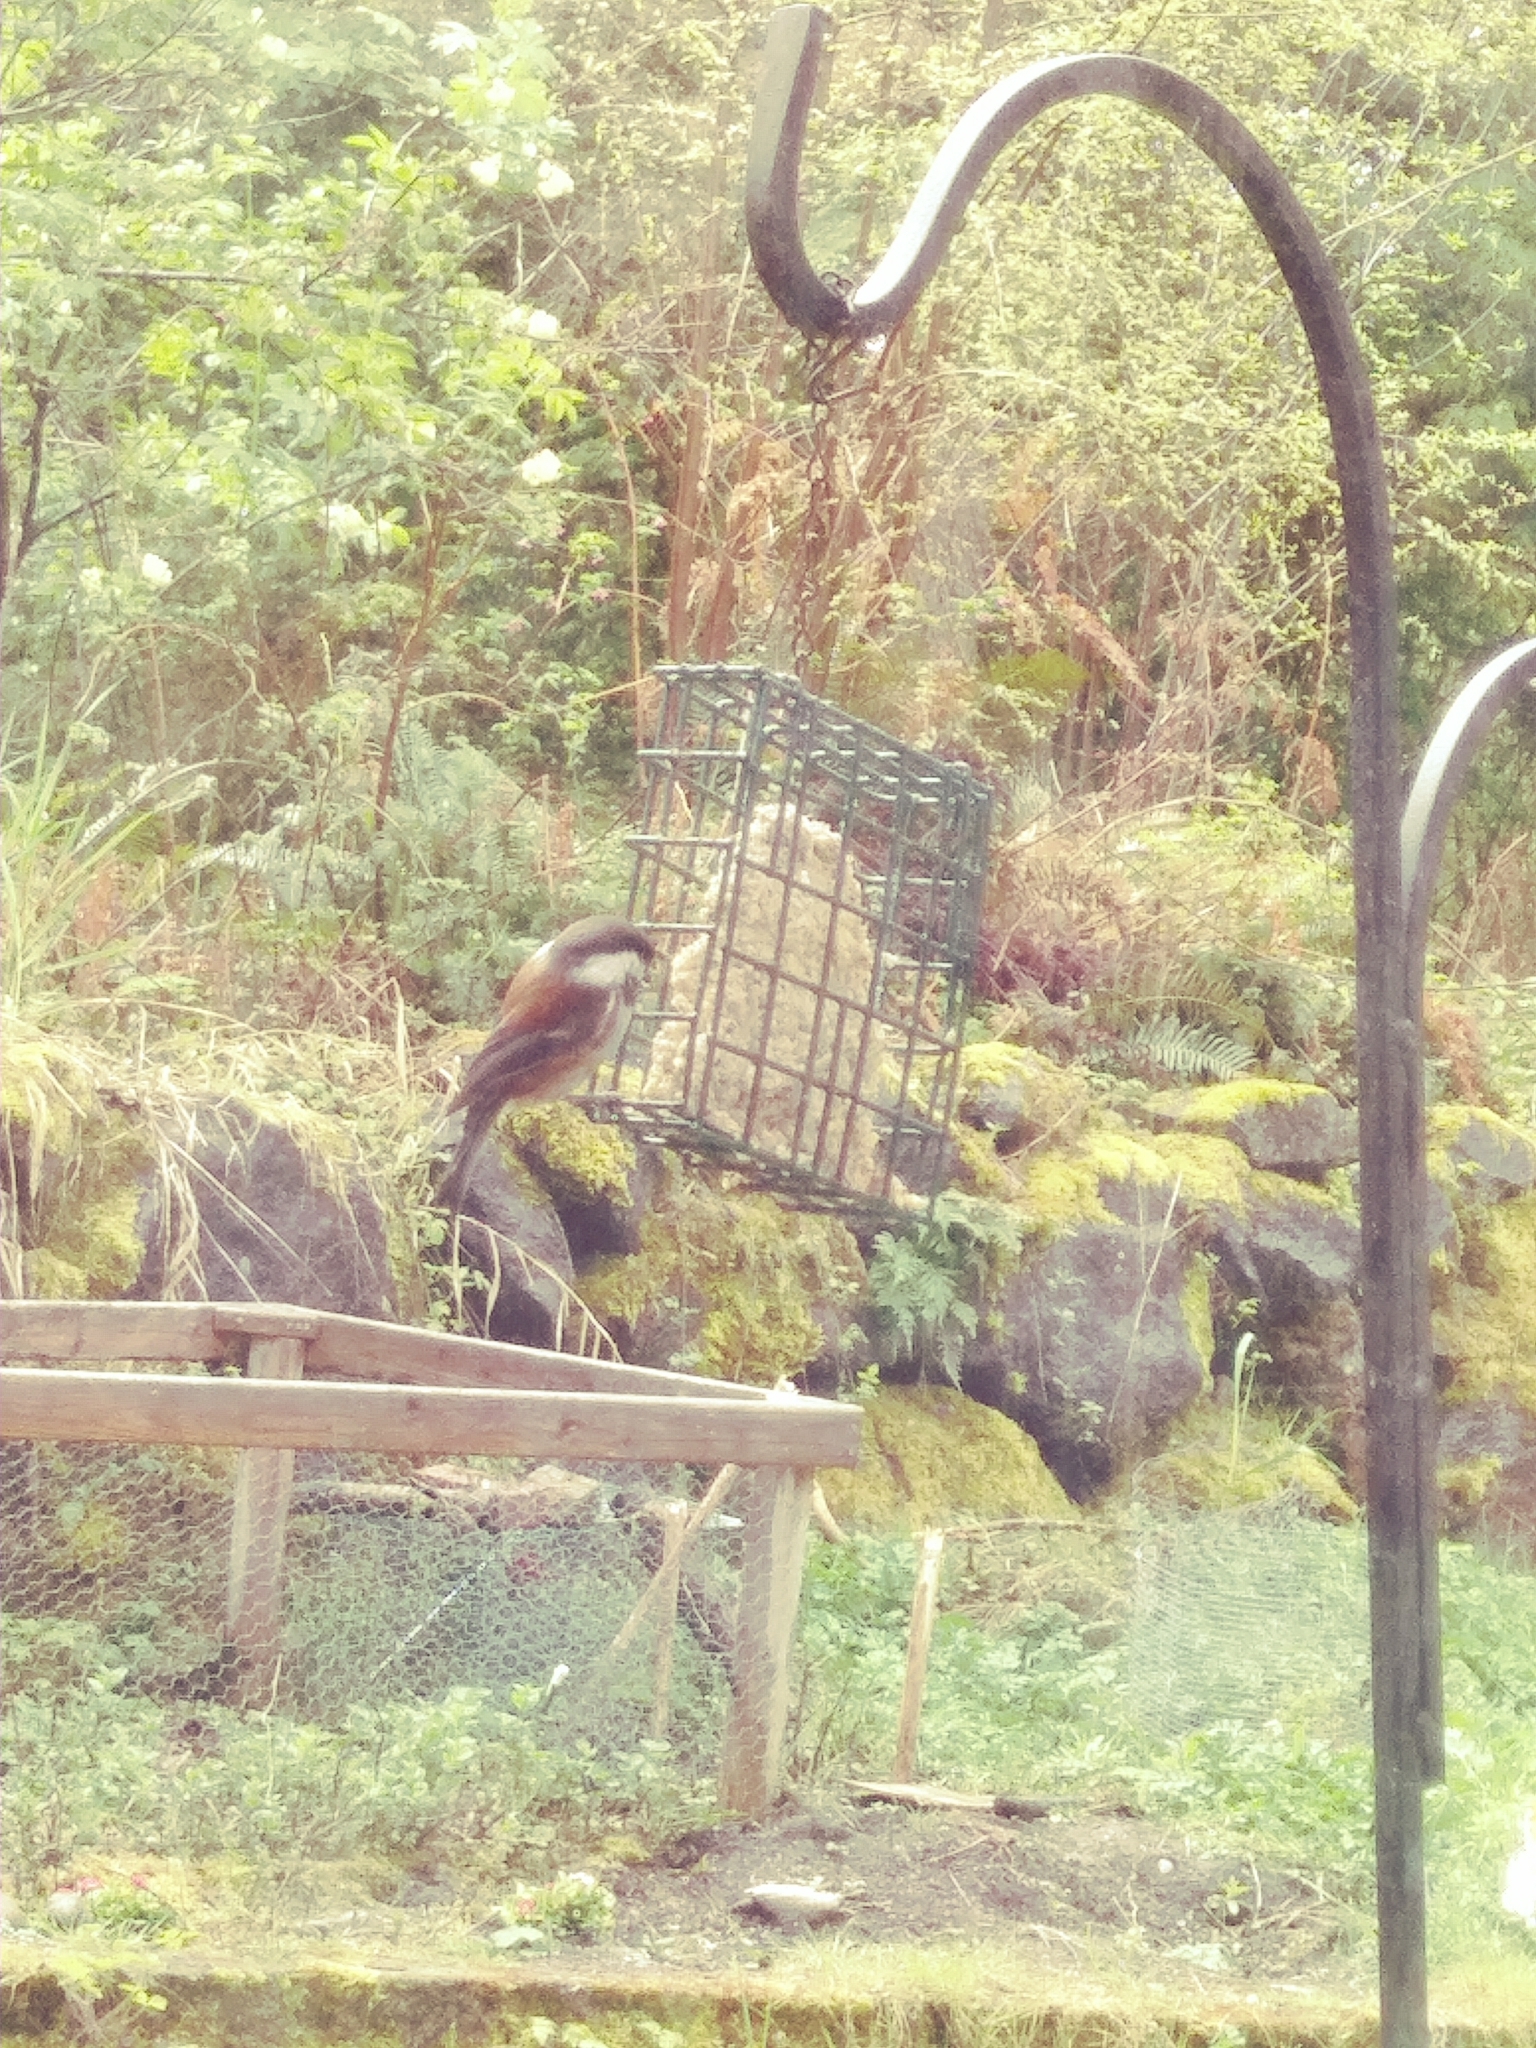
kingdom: Animalia
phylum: Chordata
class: Aves
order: Passeriformes
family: Paridae
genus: Poecile
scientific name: Poecile rufescens
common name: Chestnut-backed chickadee
